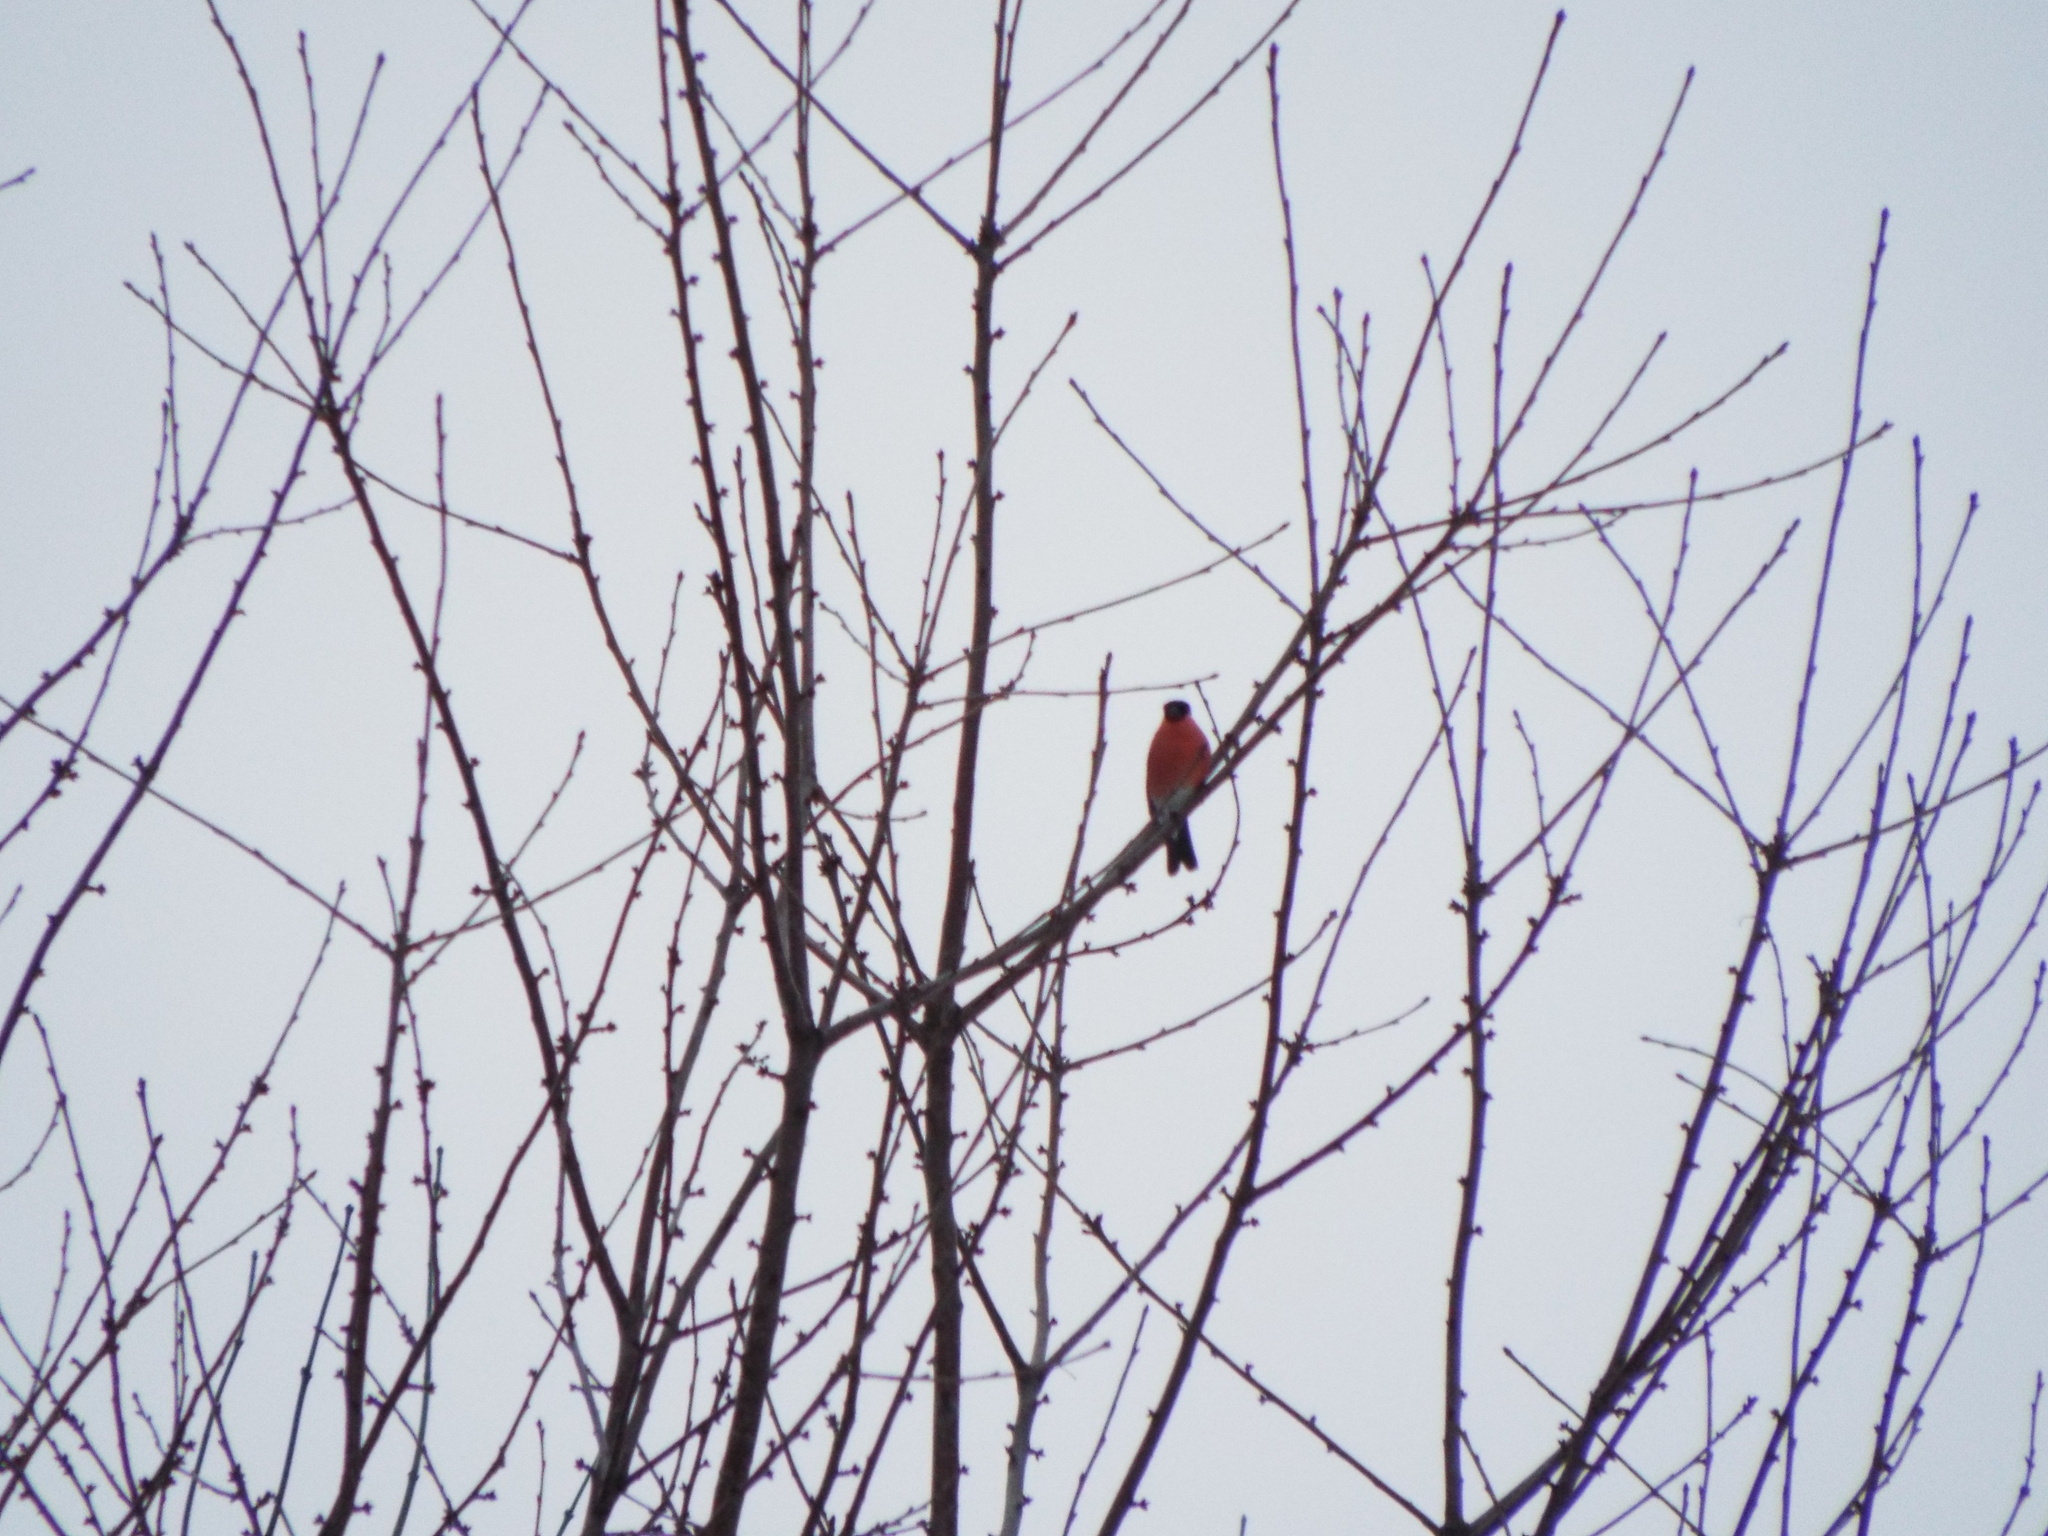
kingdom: Animalia
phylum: Chordata
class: Aves
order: Passeriformes
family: Fringillidae
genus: Pyrrhula
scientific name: Pyrrhula pyrrhula
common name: Eurasian bullfinch
